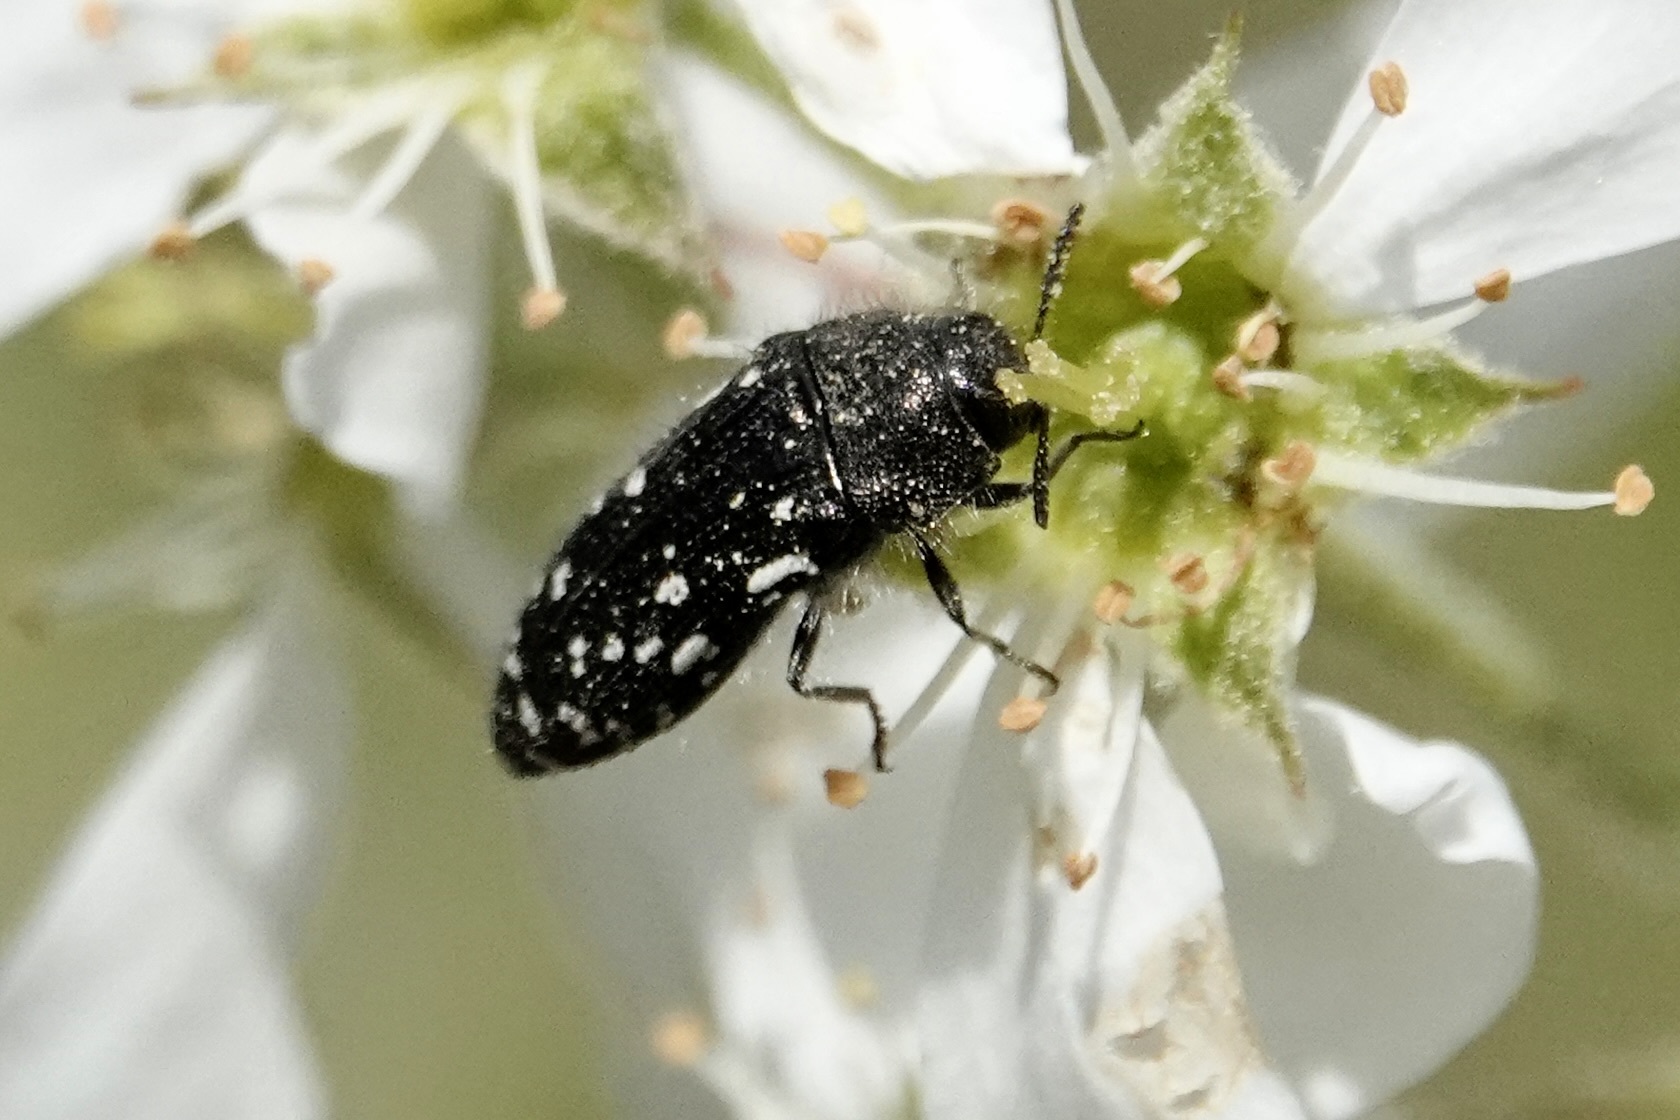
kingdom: Animalia
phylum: Arthropoda
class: Insecta
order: Coleoptera
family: Buprestidae
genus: Acmaeodera
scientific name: Acmaeodera ornata
